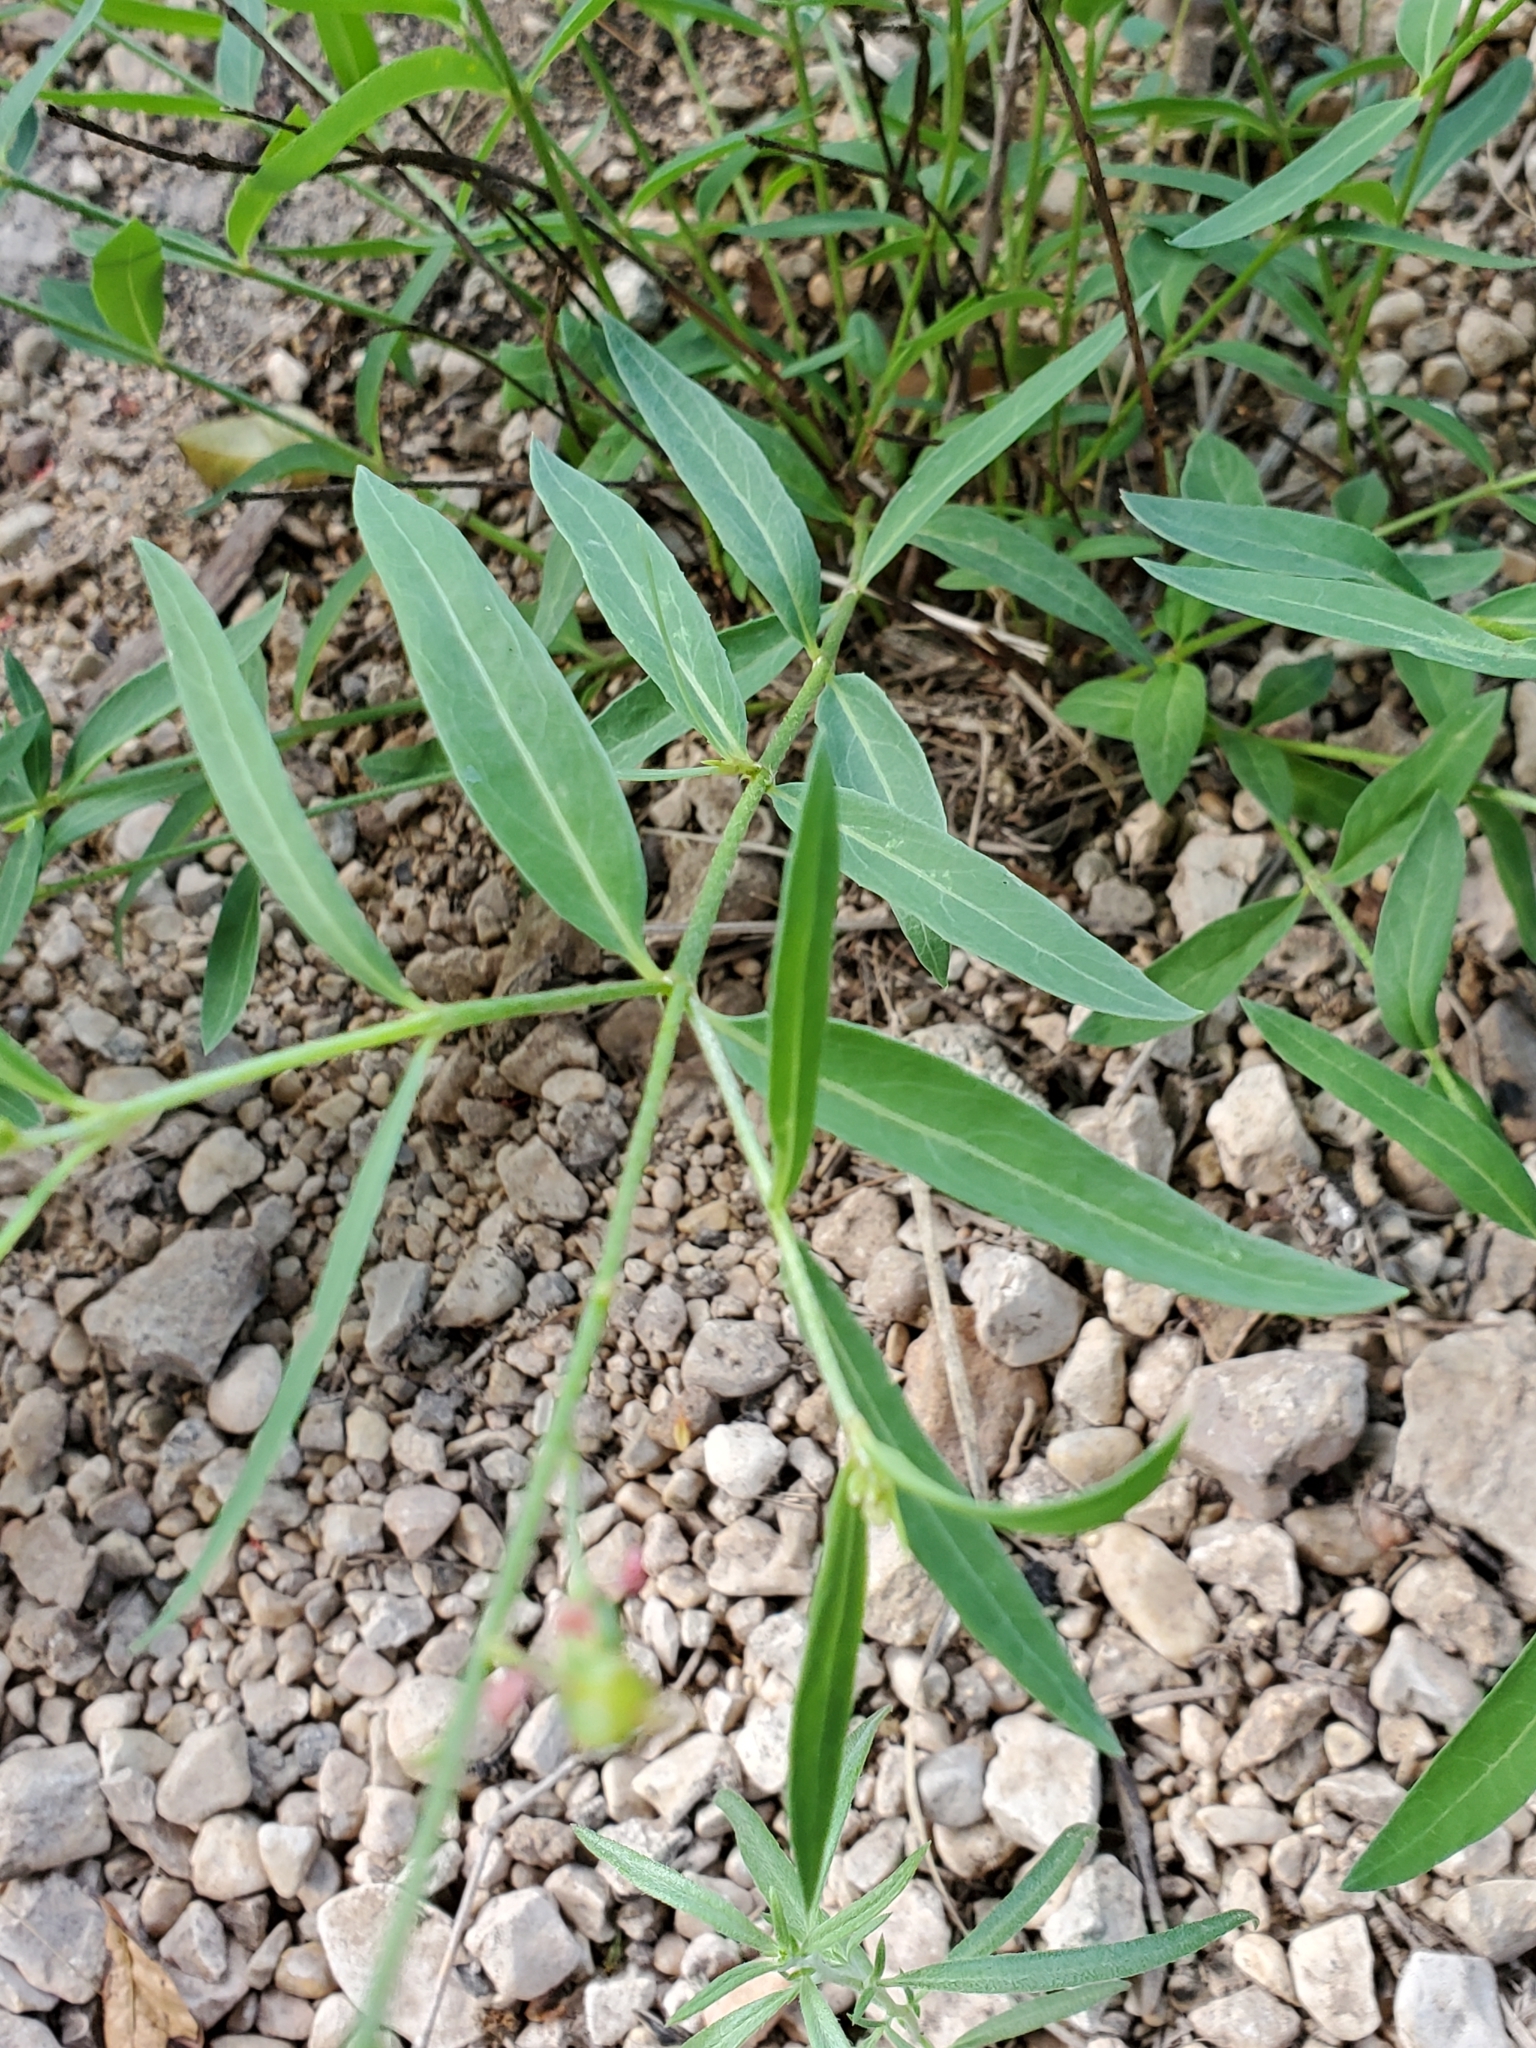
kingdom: Plantae
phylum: Tracheophyta
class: Magnoliopsida
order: Malpighiales
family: Malpighiaceae
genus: Galphimia
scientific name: Galphimia angustifolia
